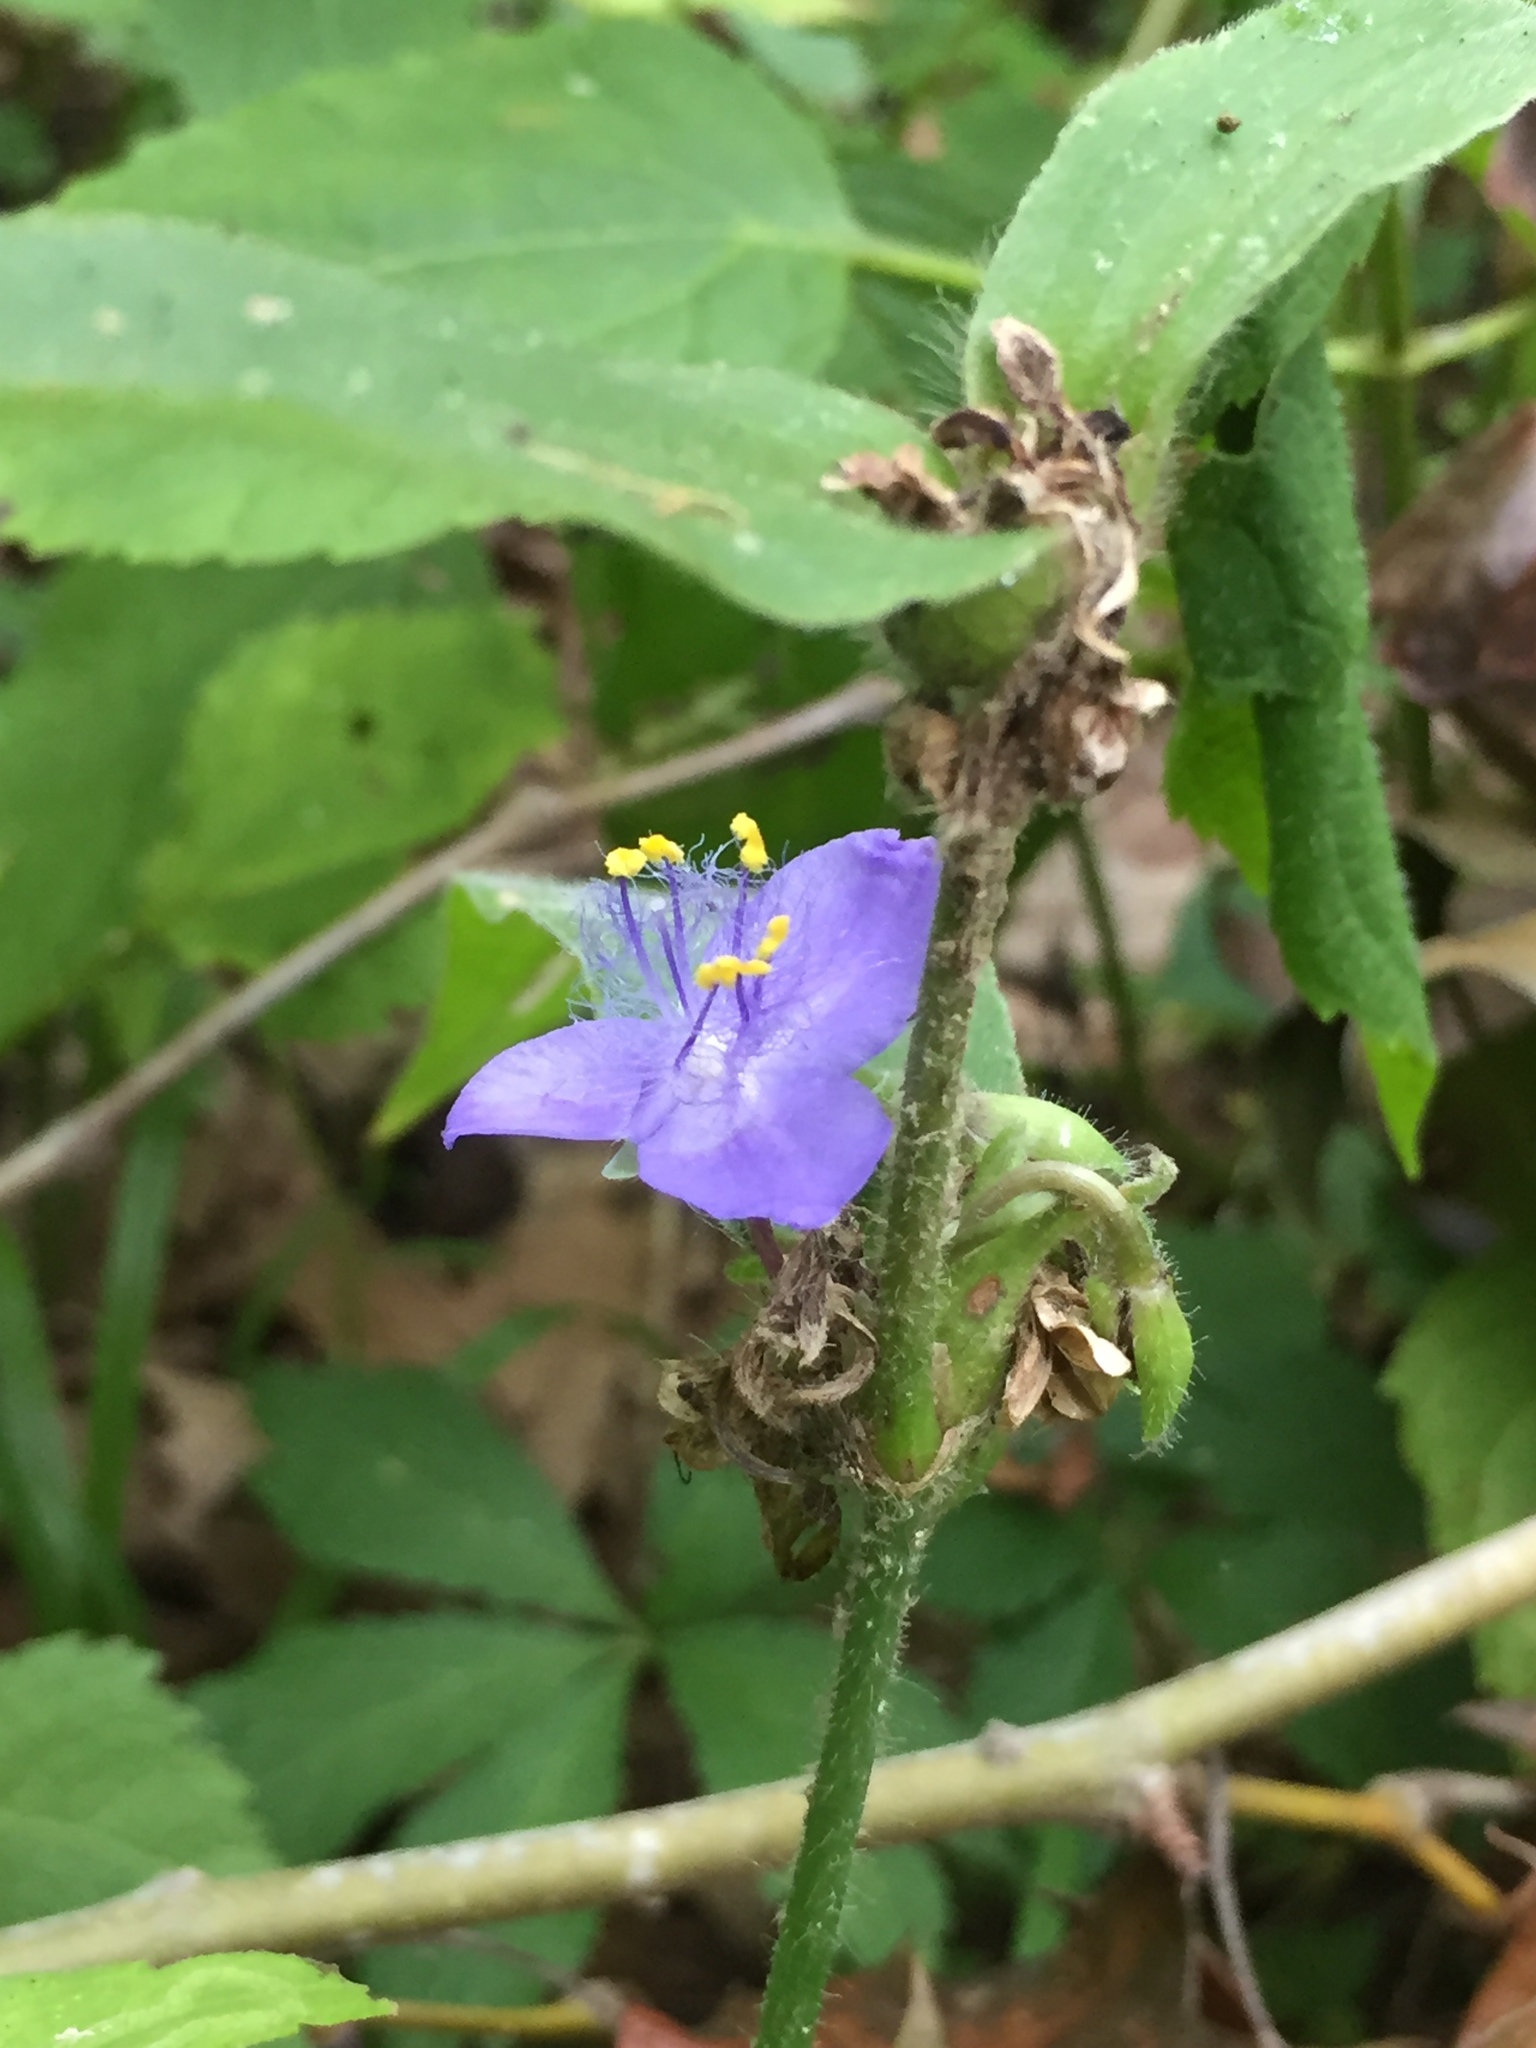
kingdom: Plantae
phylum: Tracheophyta
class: Liliopsida
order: Commelinales
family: Commelinaceae
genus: Tradescantia
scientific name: Tradescantia subaspera
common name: Wide-leaf spiderwort
